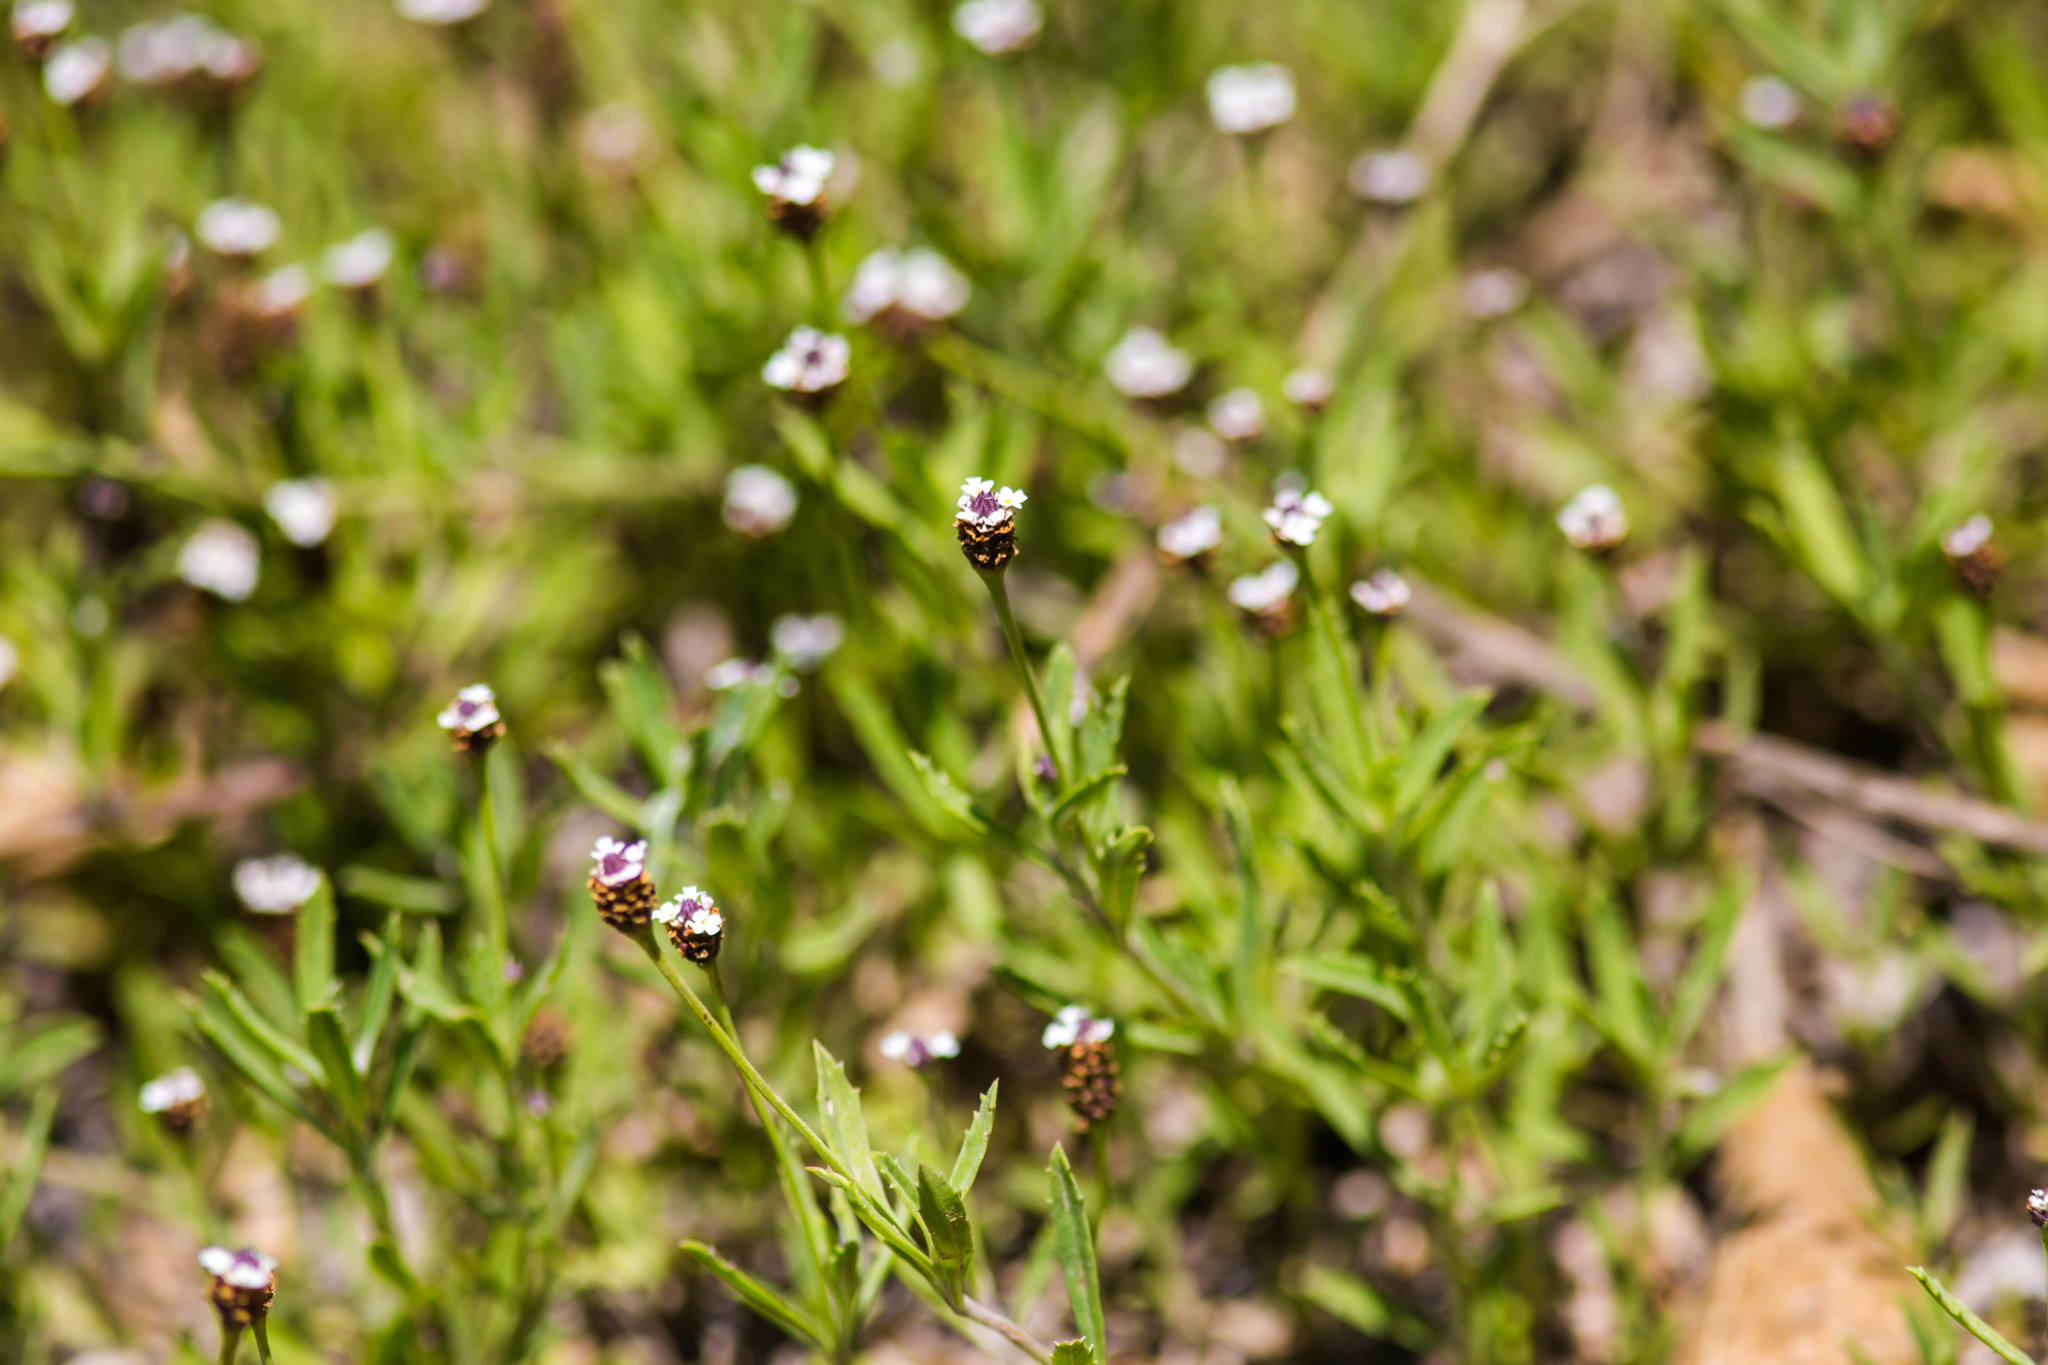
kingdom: Plantae
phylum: Tracheophyta
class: Magnoliopsida
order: Lamiales
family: Verbenaceae
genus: Phyla
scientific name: Phyla nodiflora
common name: Frogfruit
